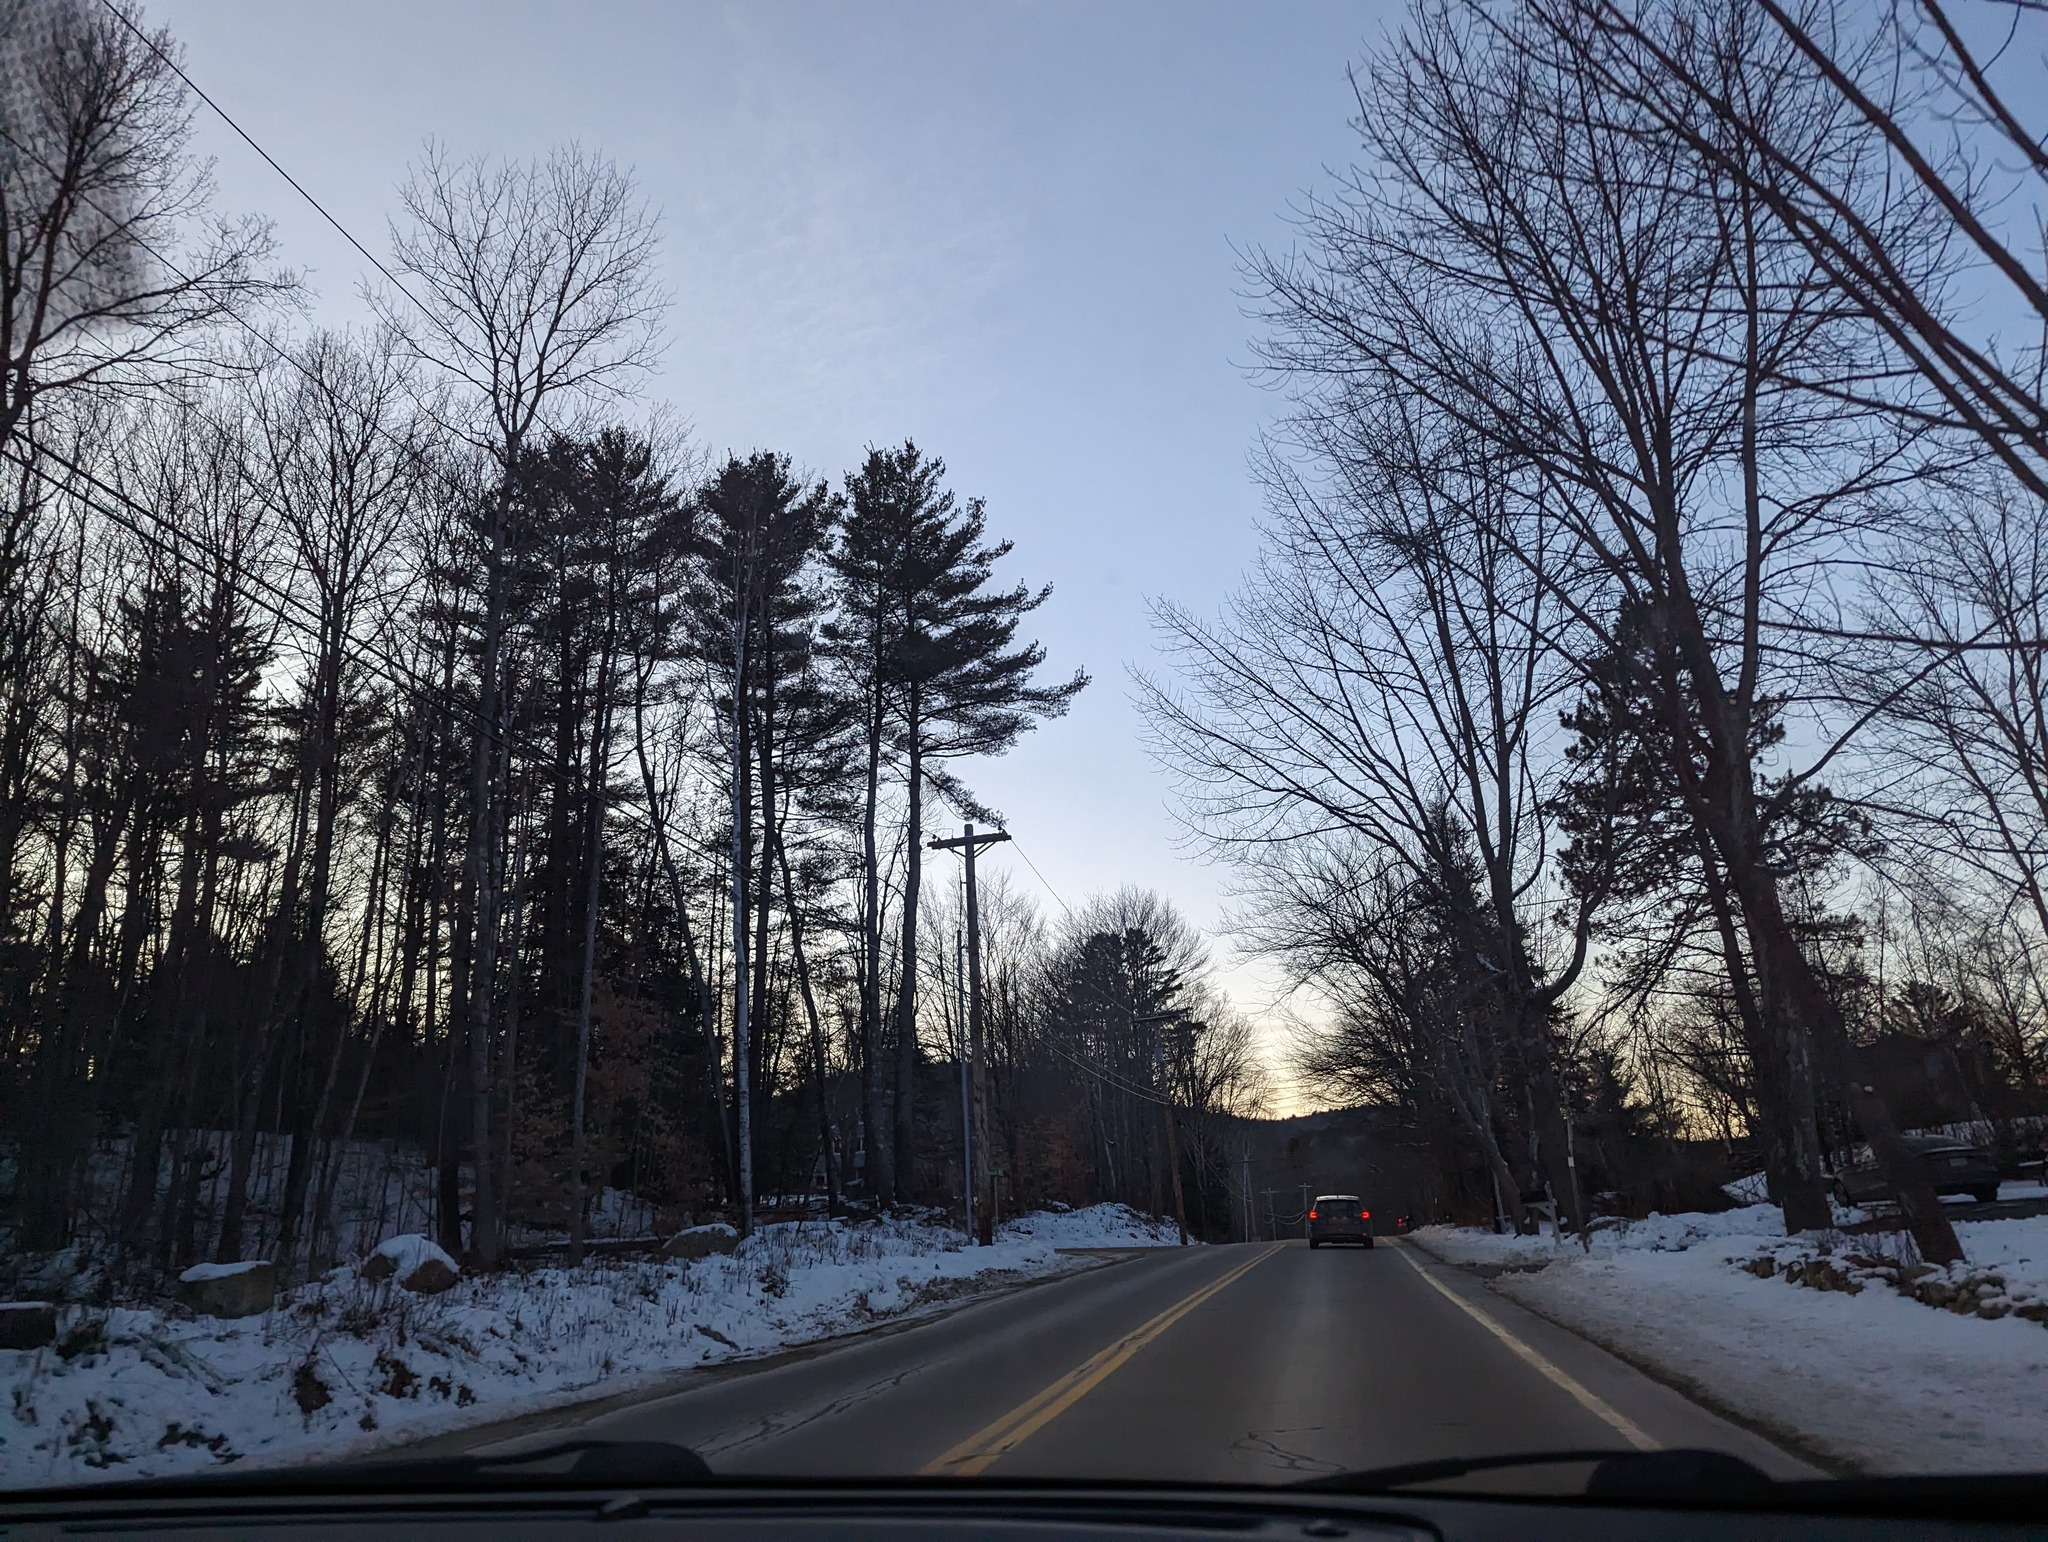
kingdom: Plantae
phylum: Tracheophyta
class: Pinopsida
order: Pinales
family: Pinaceae
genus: Pinus
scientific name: Pinus strobus
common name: Weymouth pine
